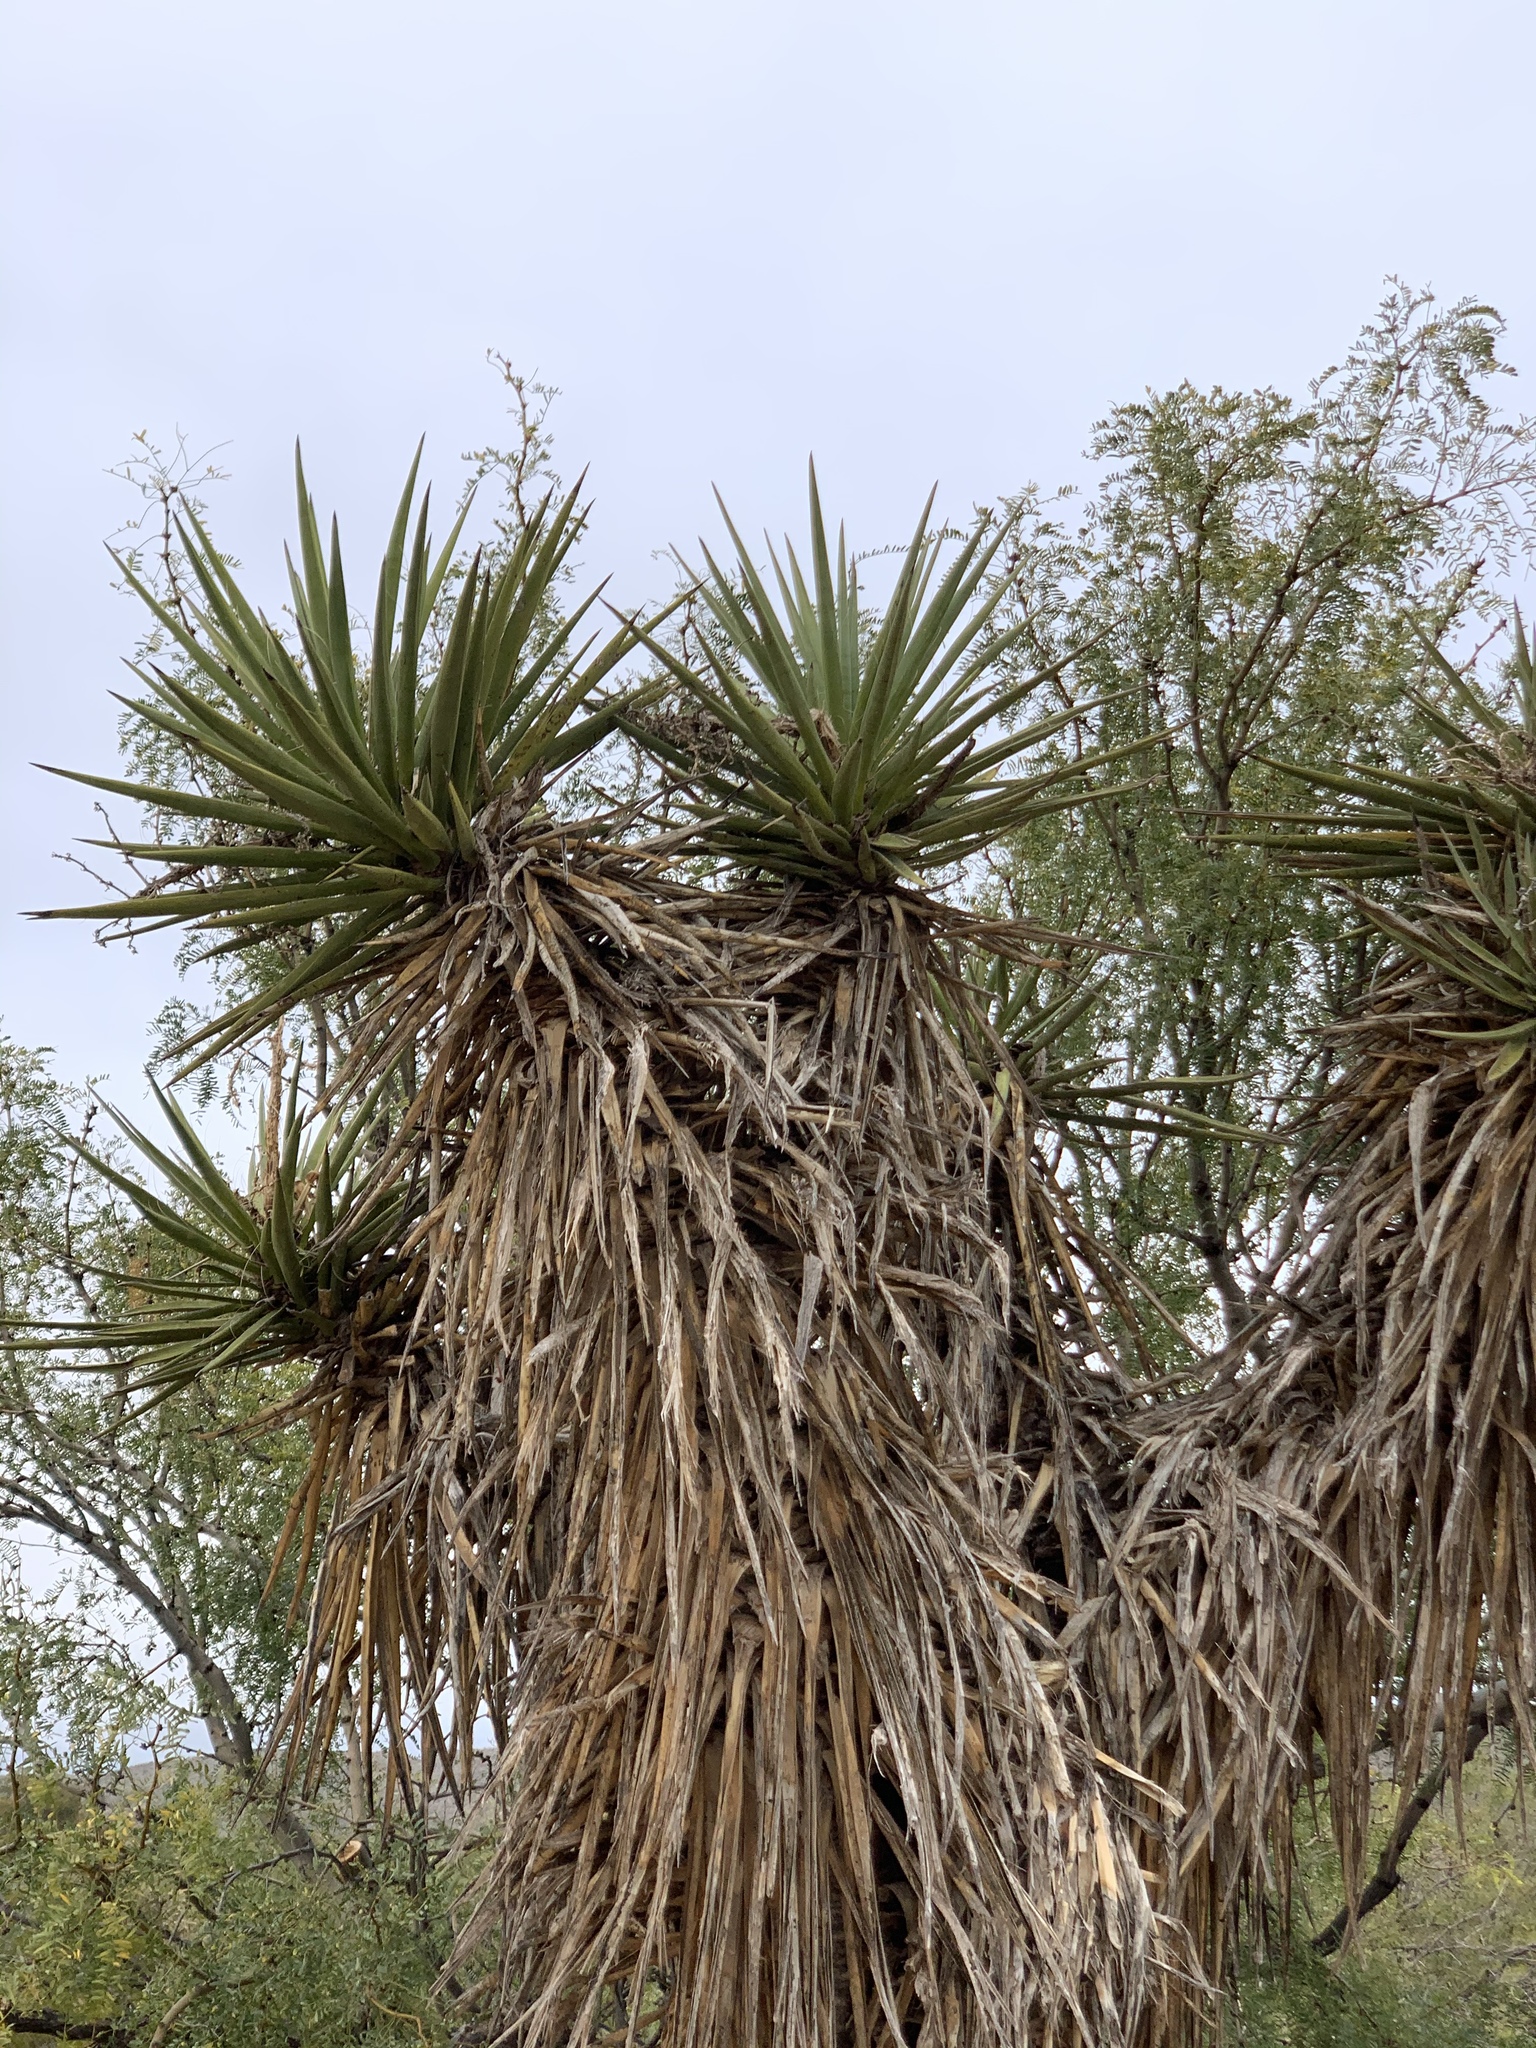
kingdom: Plantae
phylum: Tracheophyta
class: Liliopsida
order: Asparagales
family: Asparagaceae
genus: Yucca
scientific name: Yucca treculiana
